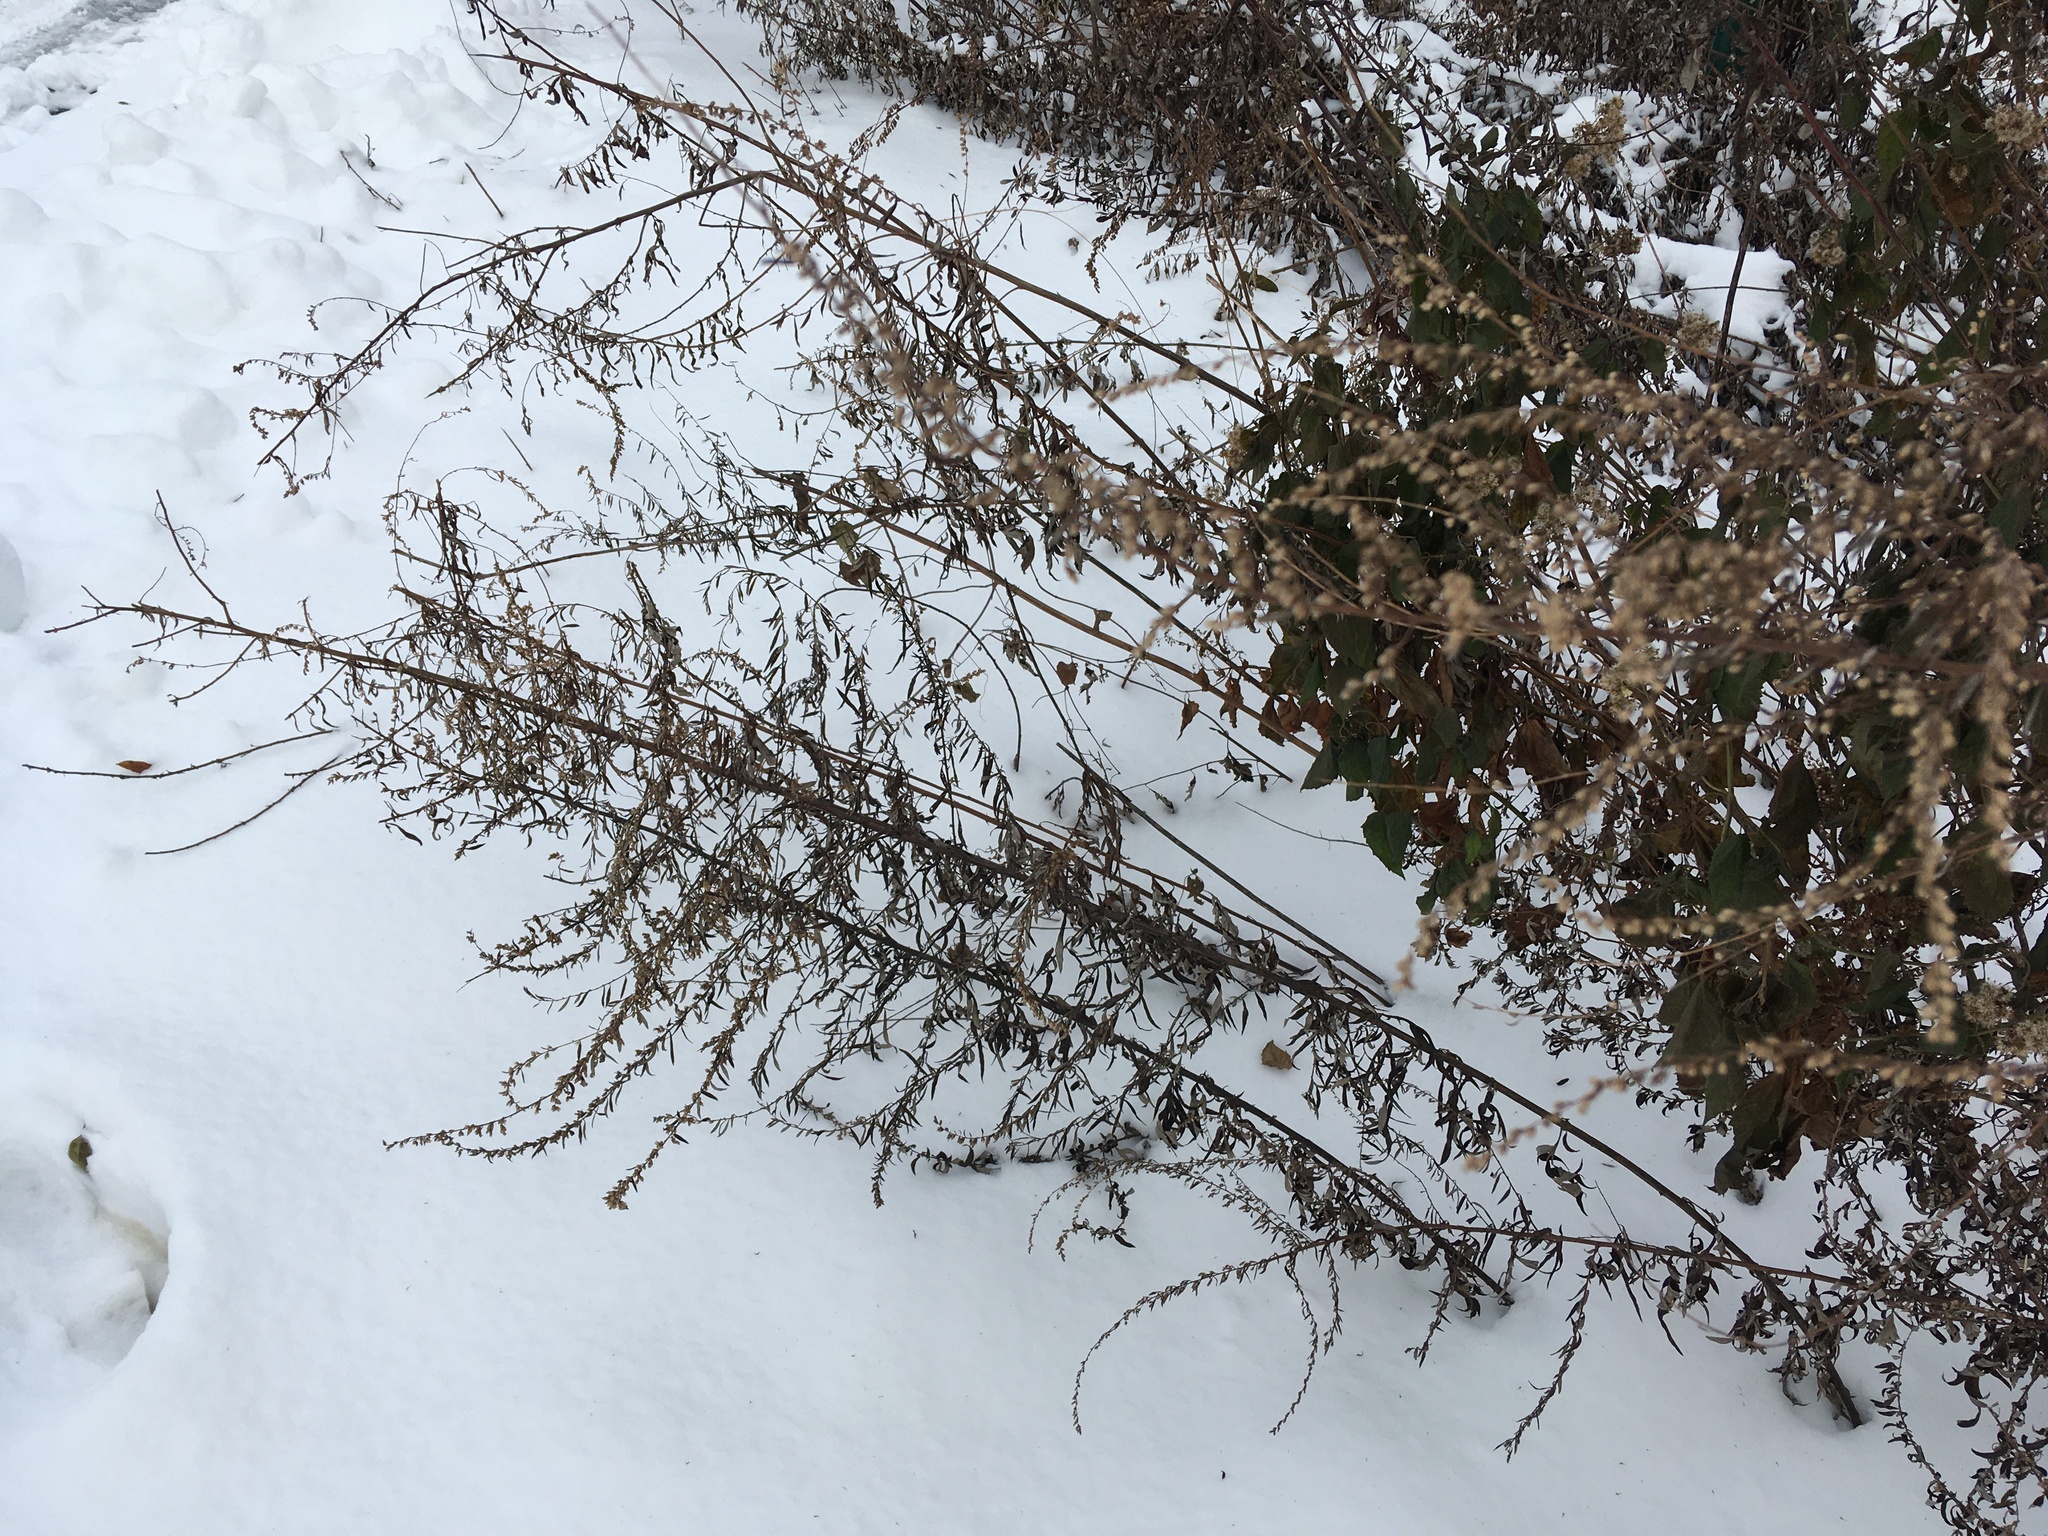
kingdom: Plantae
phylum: Tracheophyta
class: Magnoliopsida
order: Asterales
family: Asteraceae
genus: Artemisia
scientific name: Artemisia vulgaris
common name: Mugwort
